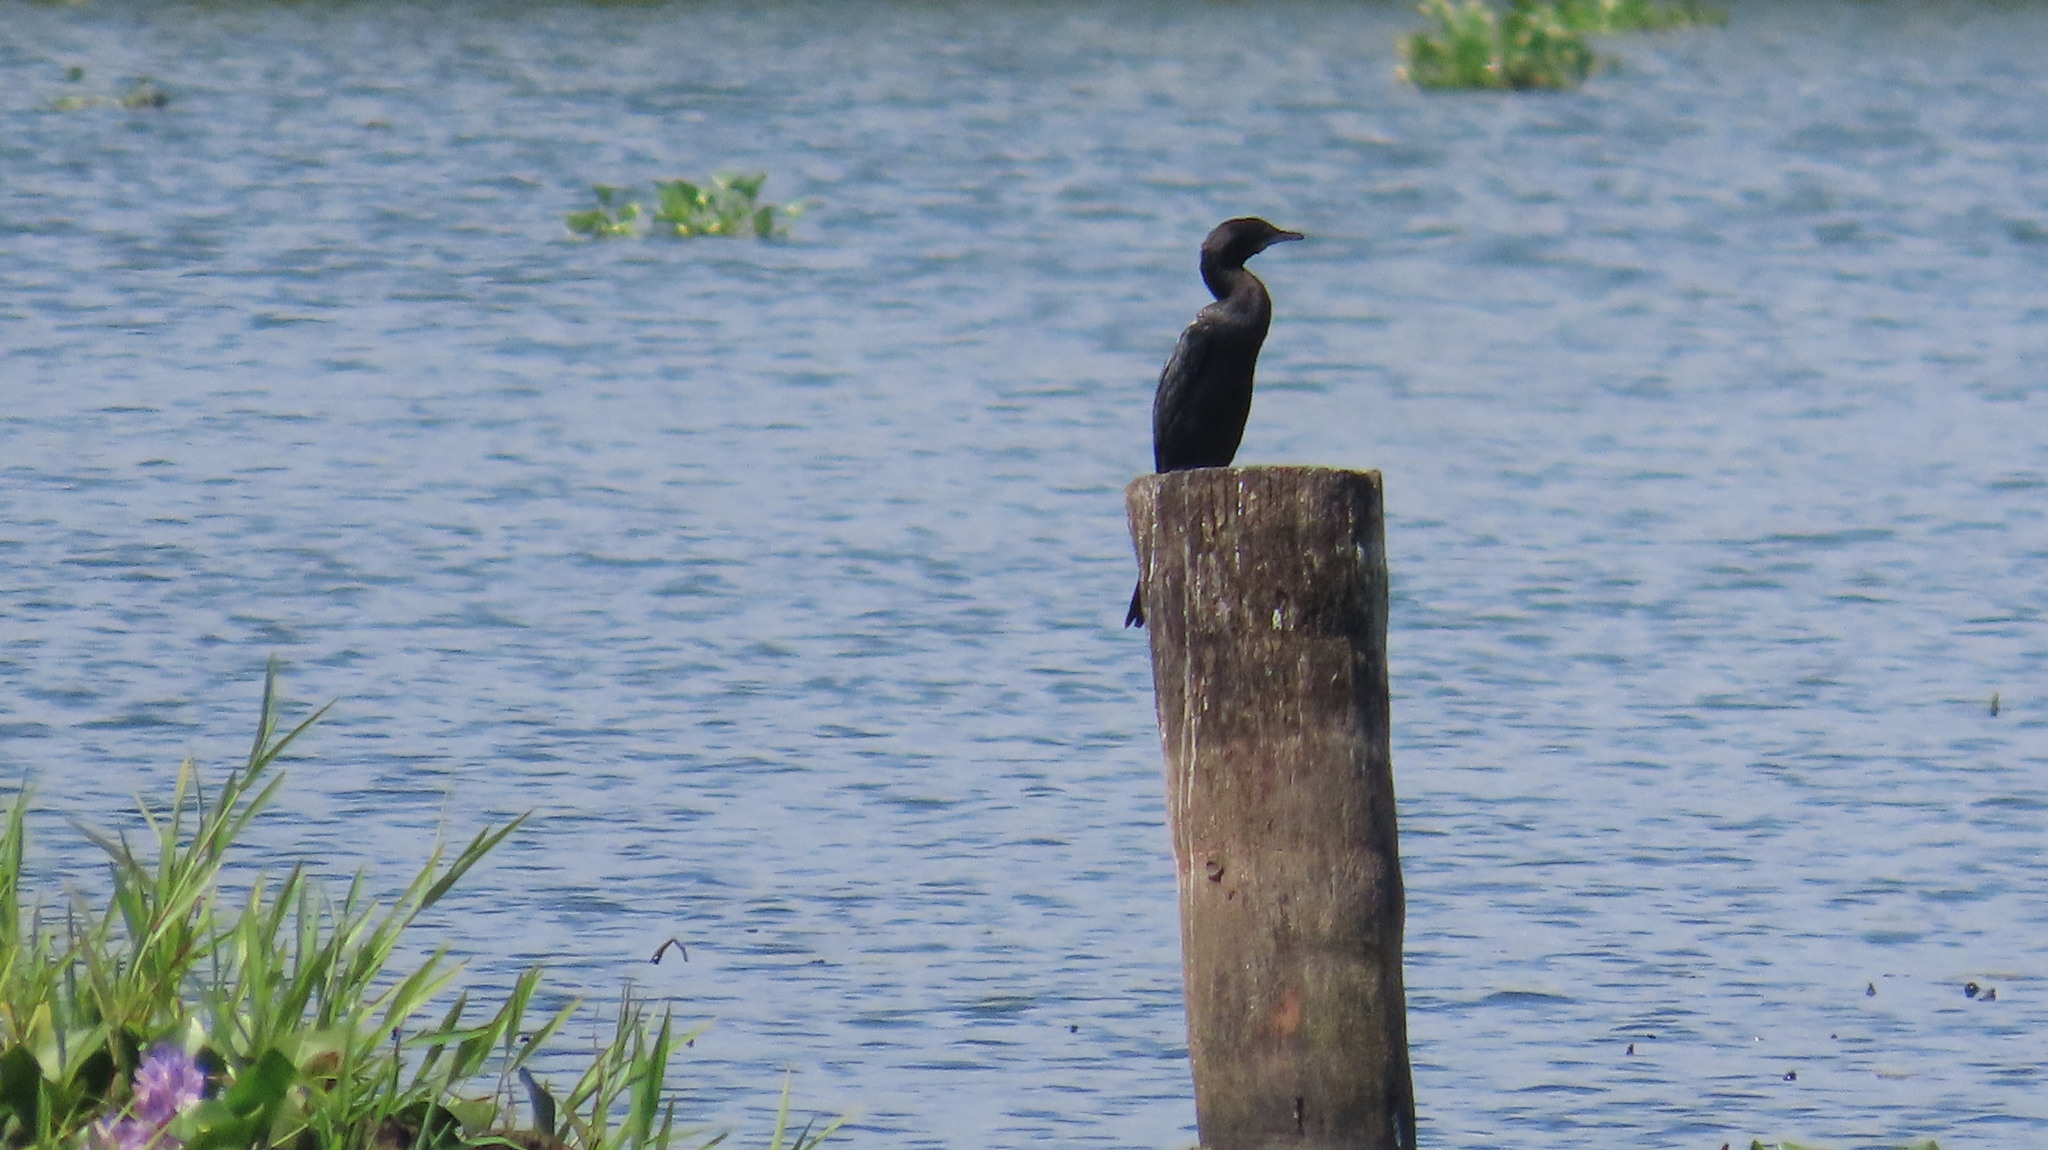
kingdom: Animalia
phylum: Chordata
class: Aves
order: Suliformes
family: Phalacrocoracidae
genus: Microcarbo
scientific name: Microcarbo niger
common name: Little cormorant
